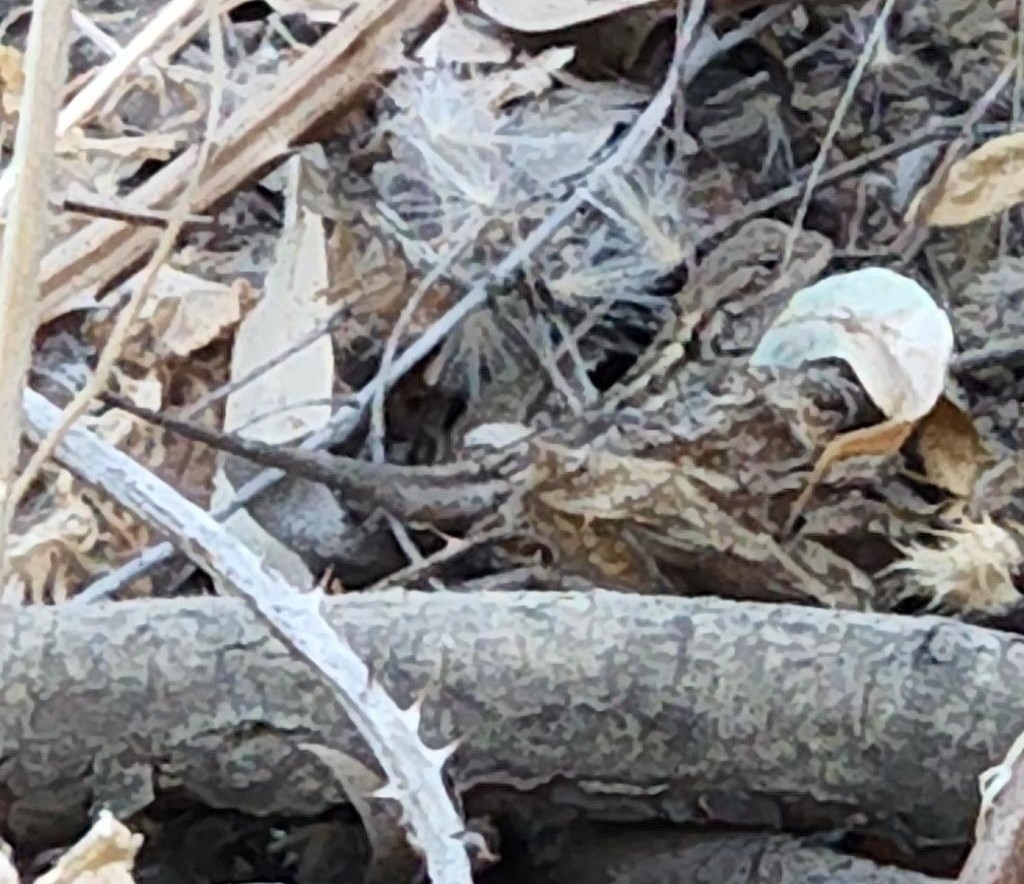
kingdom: Animalia
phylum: Chordata
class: Squamata
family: Phrynosomatidae
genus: Sceloporus
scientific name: Sceloporus occidentalis
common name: Western fence lizard
